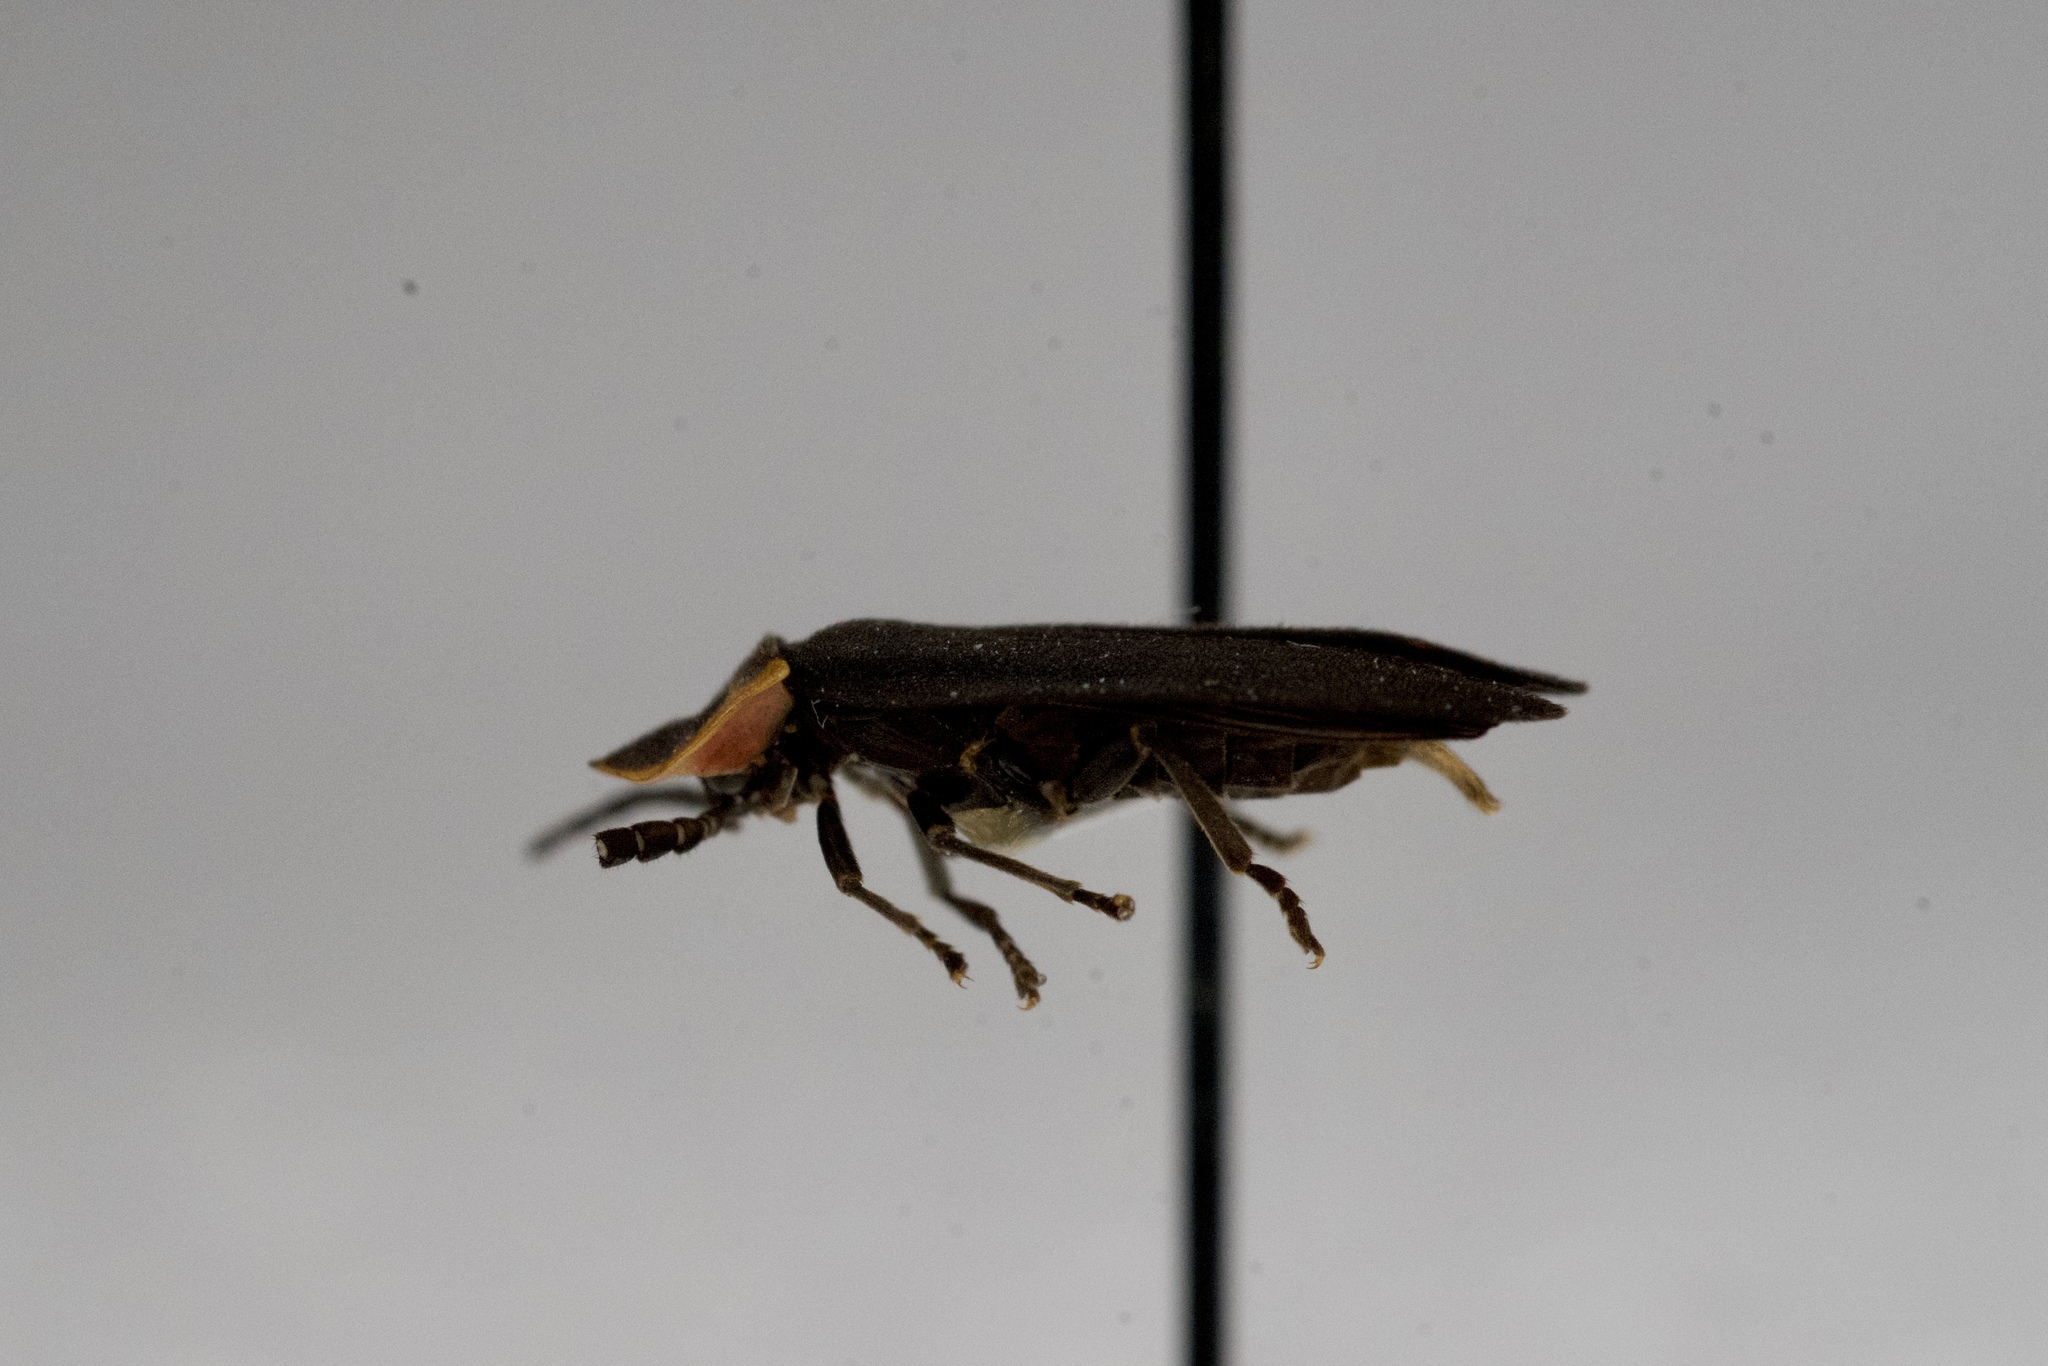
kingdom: Animalia
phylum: Arthropoda
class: Insecta
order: Coleoptera
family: Lampyridae
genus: Lucidota
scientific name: Lucidota atra
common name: Black firefly
